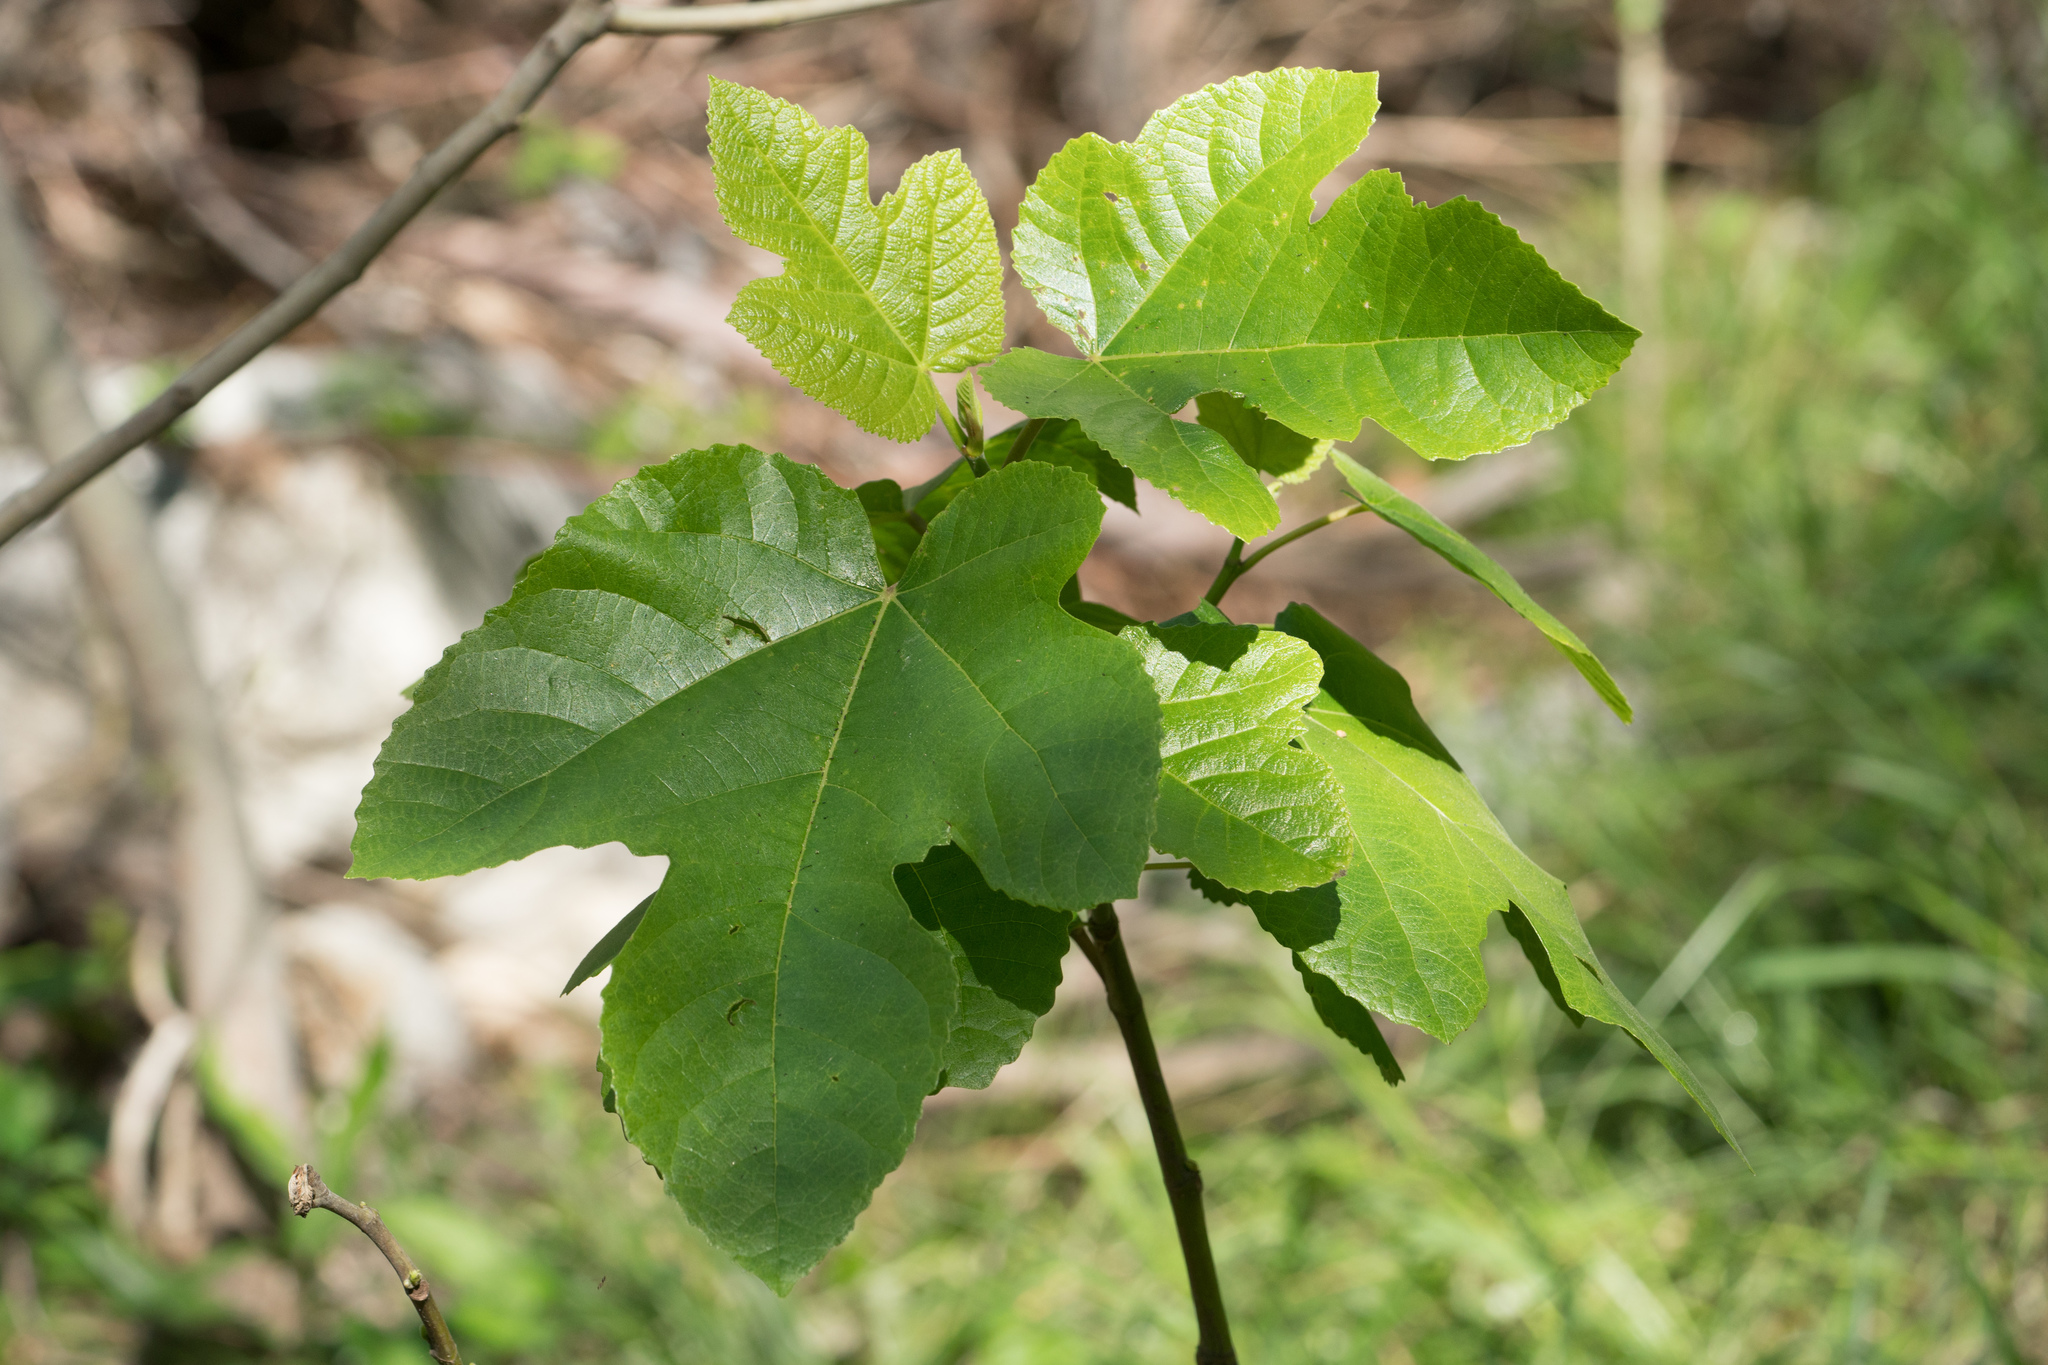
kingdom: Plantae
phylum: Tracheophyta
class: Magnoliopsida
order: Rosales
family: Moraceae
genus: Ficus
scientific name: Ficus carica
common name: Fig
